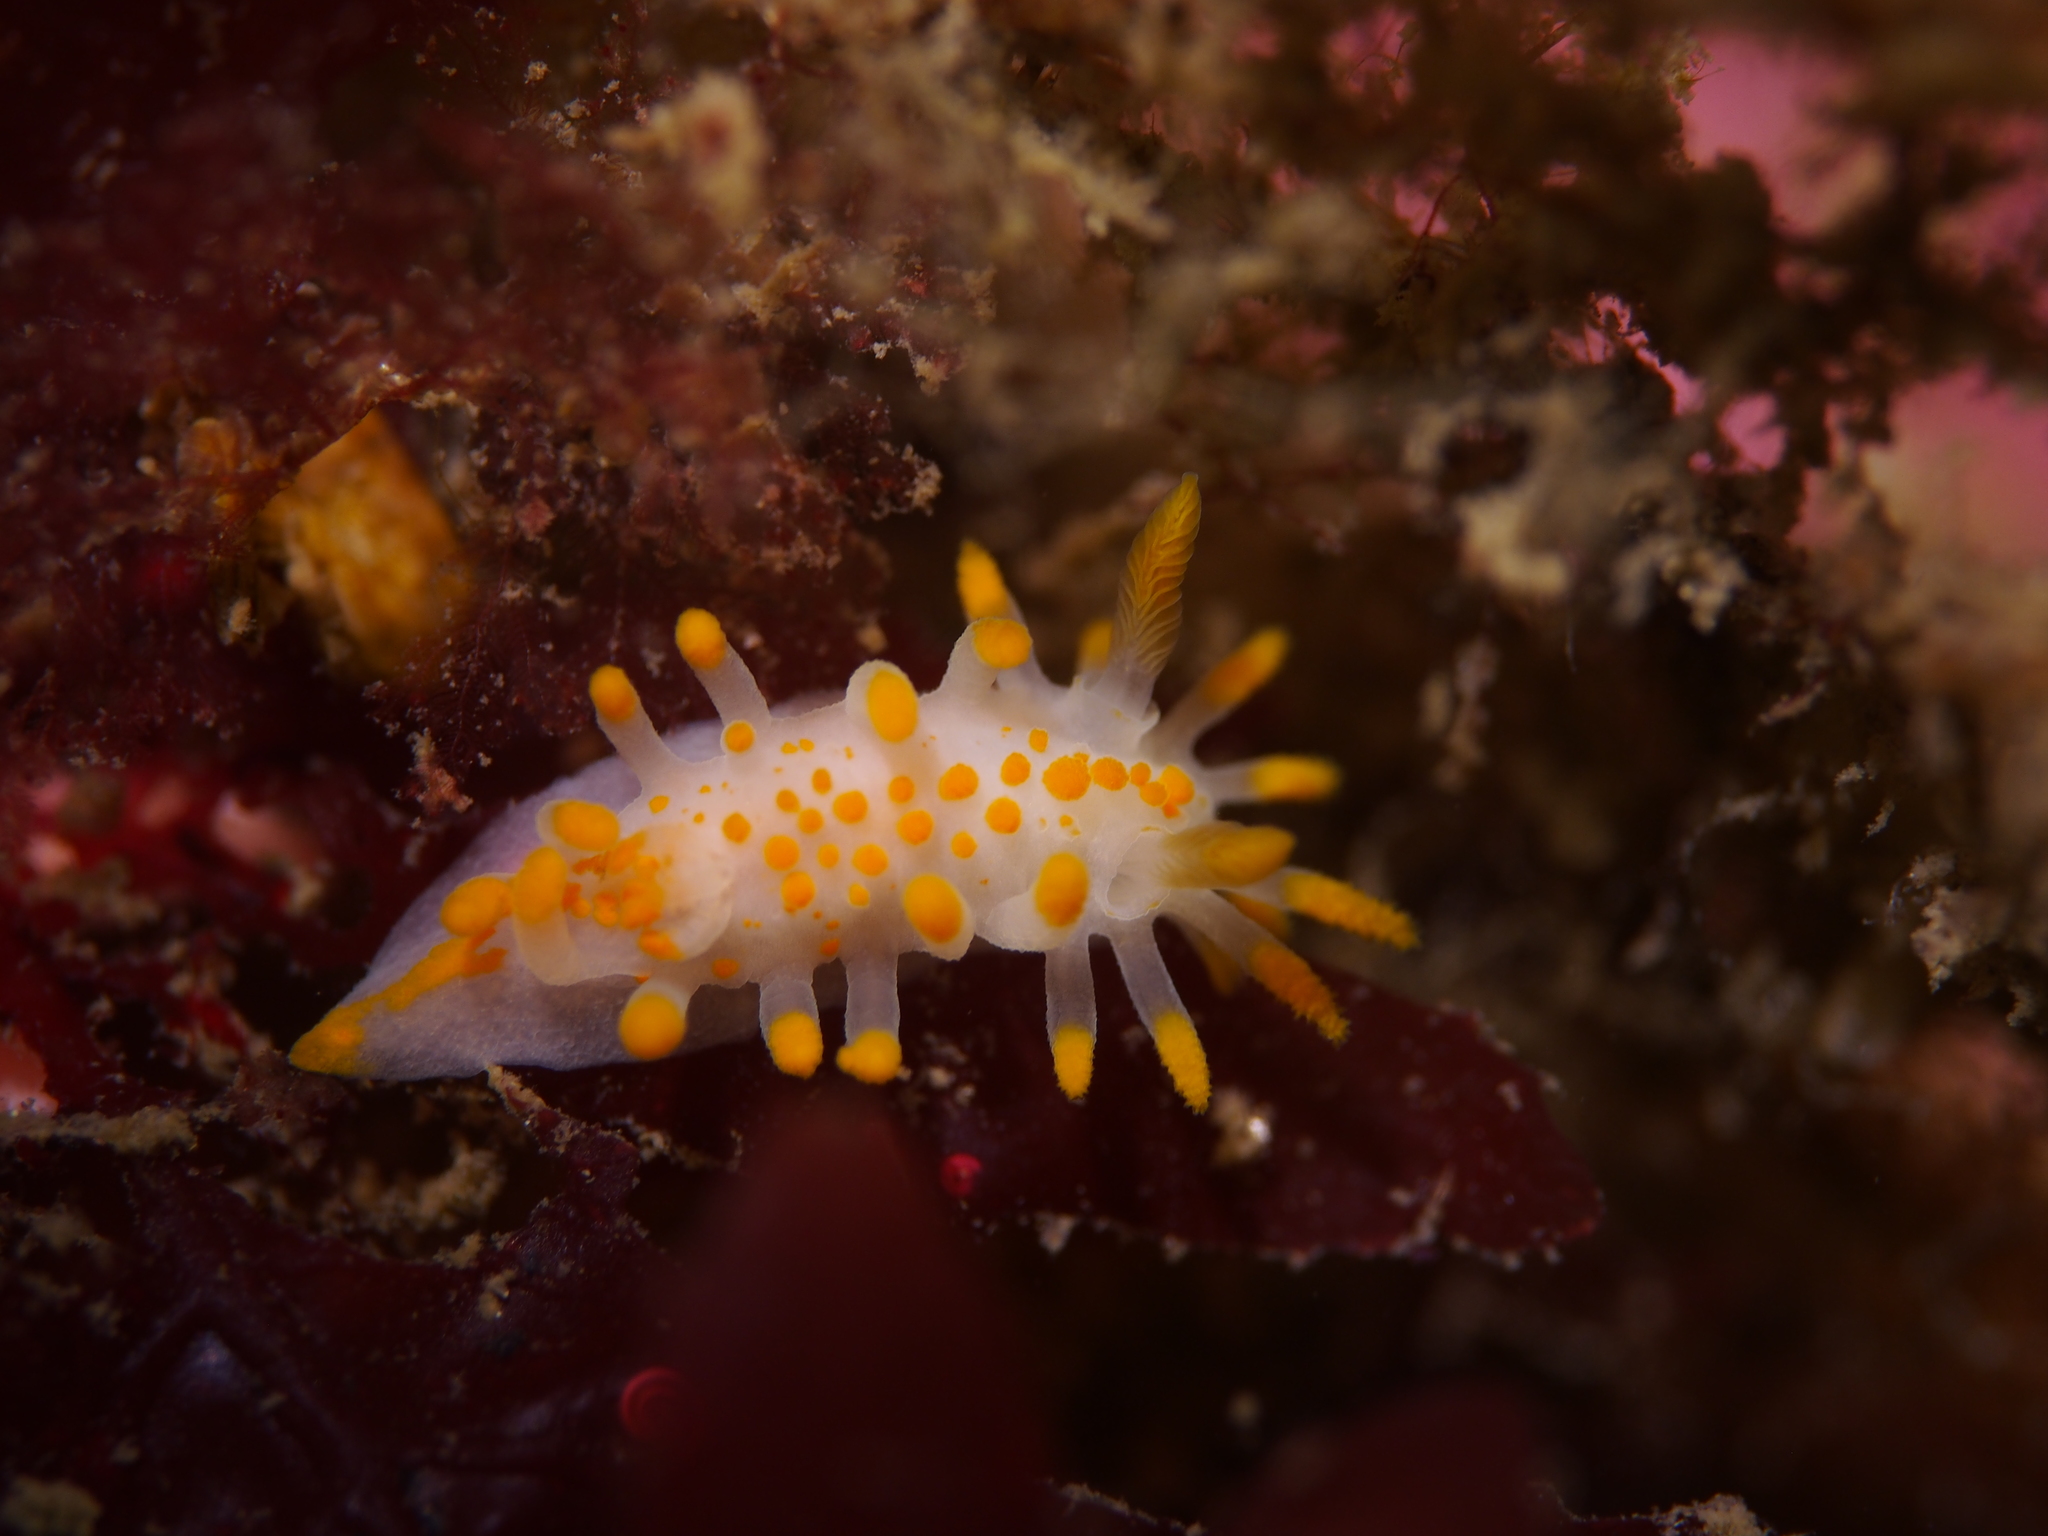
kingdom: Animalia
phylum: Mollusca
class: Gastropoda
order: Nudibranchia
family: Polyceridae
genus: Limacia
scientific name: Limacia clavigera
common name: Orange-clubbed sea slug
